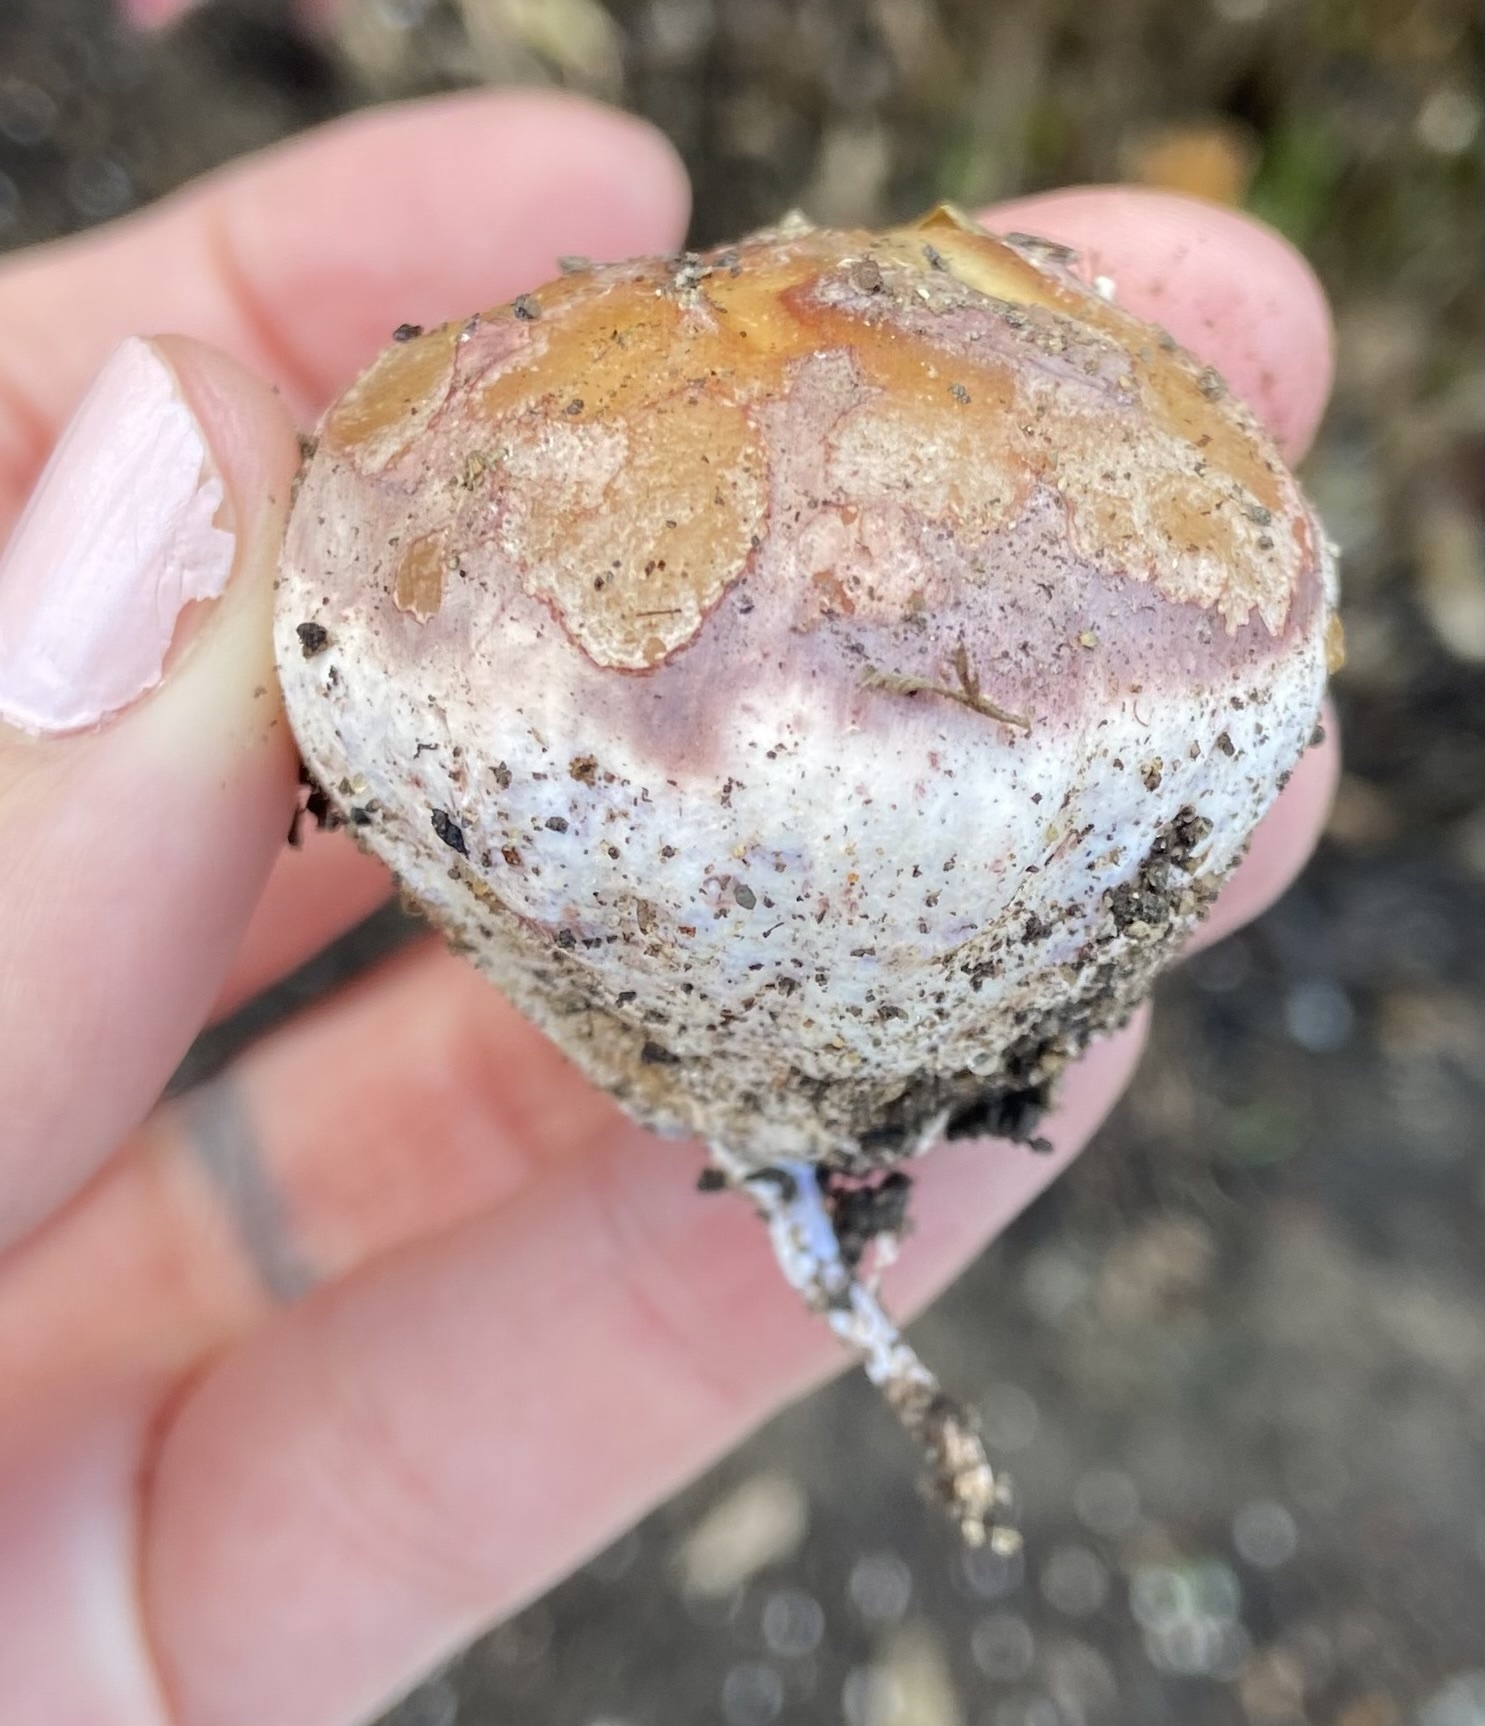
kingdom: Fungi
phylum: Basidiomycota
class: Agaricomycetes
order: Phallales
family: Phallaceae
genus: Phallus
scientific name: Phallus hadriani
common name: Sand stinkhorn
